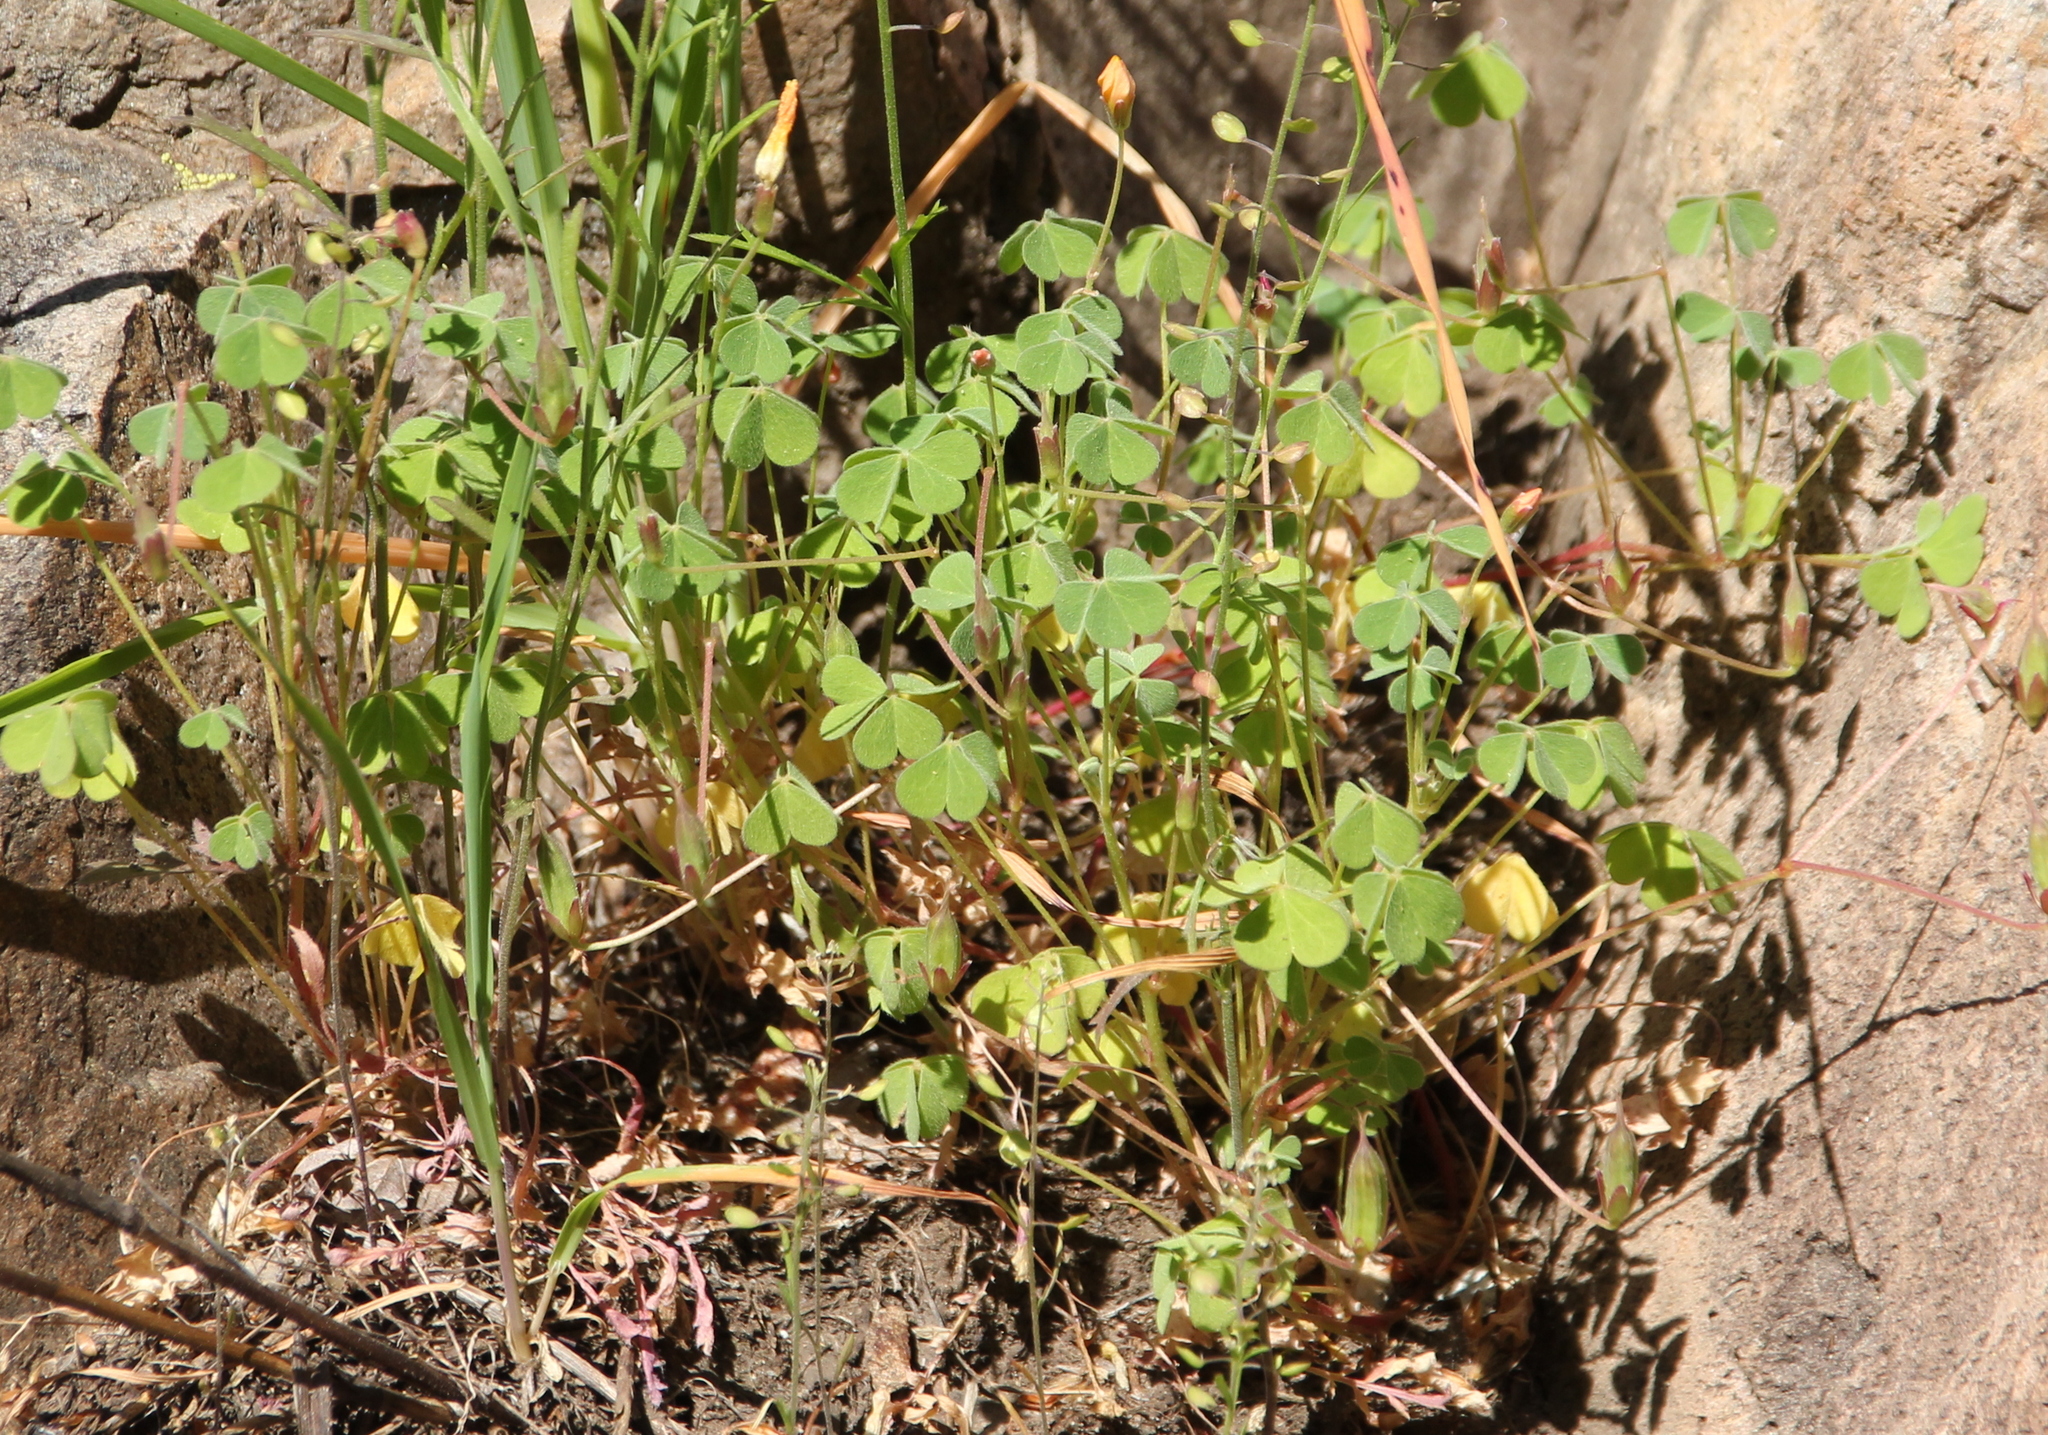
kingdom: Plantae
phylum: Tracheophyta
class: Magnoliopsida
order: Oxalidales
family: Oxalidaceae
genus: Oxalis
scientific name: Oxalis californica
